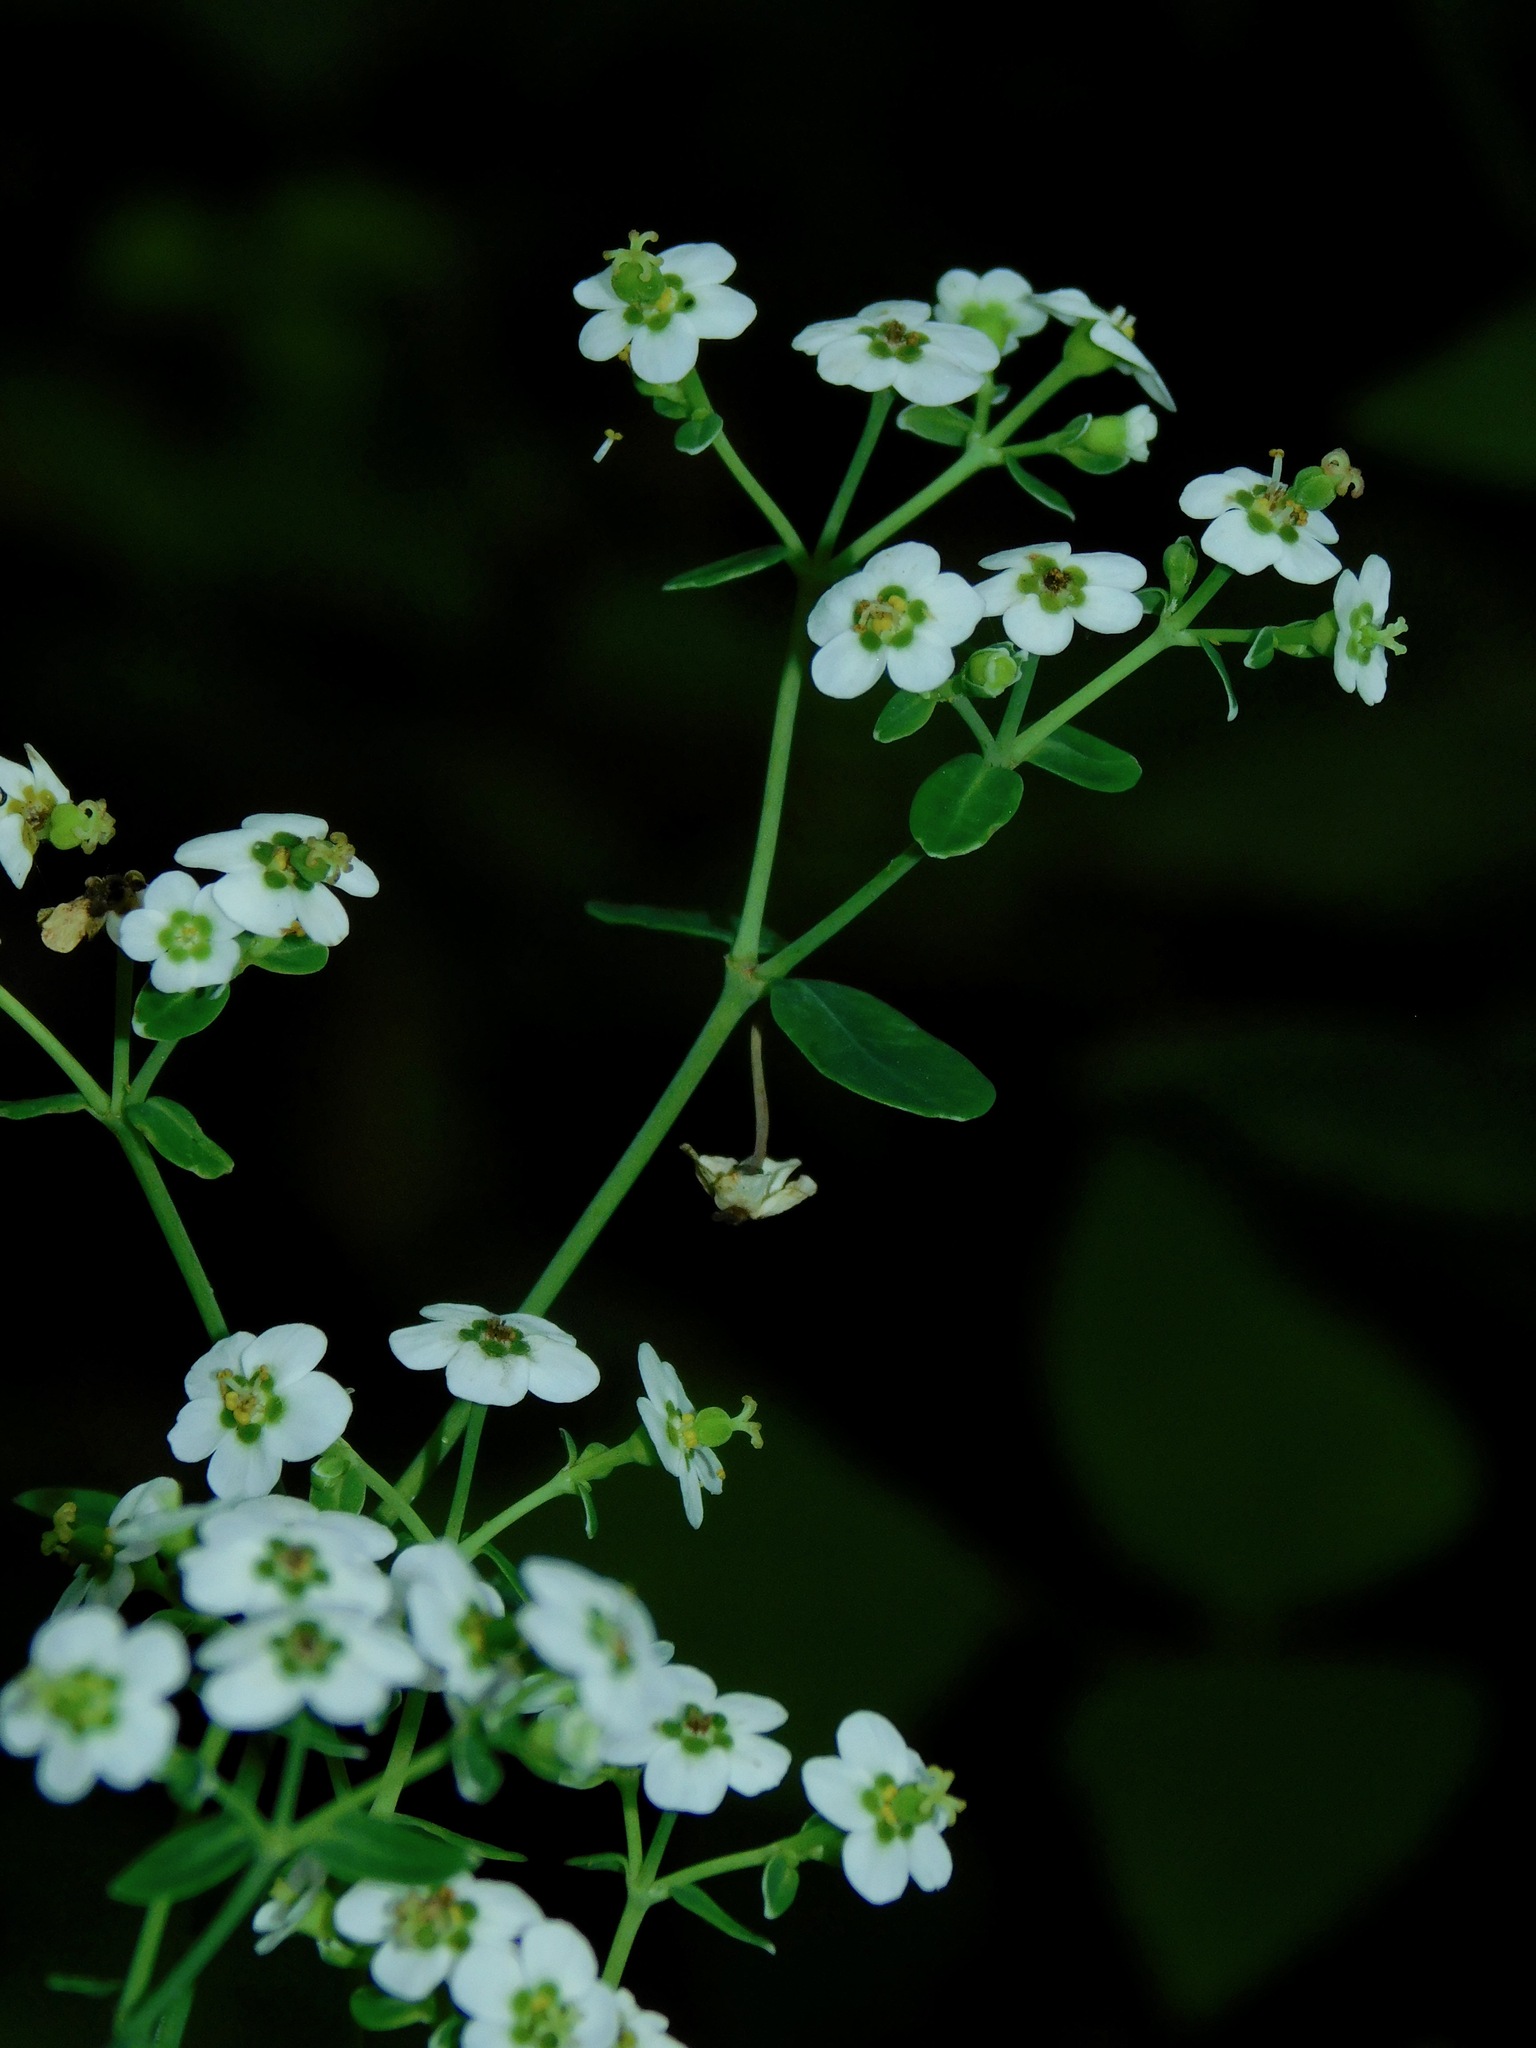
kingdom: Plantae
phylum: Tracheophyta
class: Magnoliopsida
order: Malpighiales
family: Euphorbiaceae
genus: Euphorbia
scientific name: Euphorbia corollata
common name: Flowering spurge
